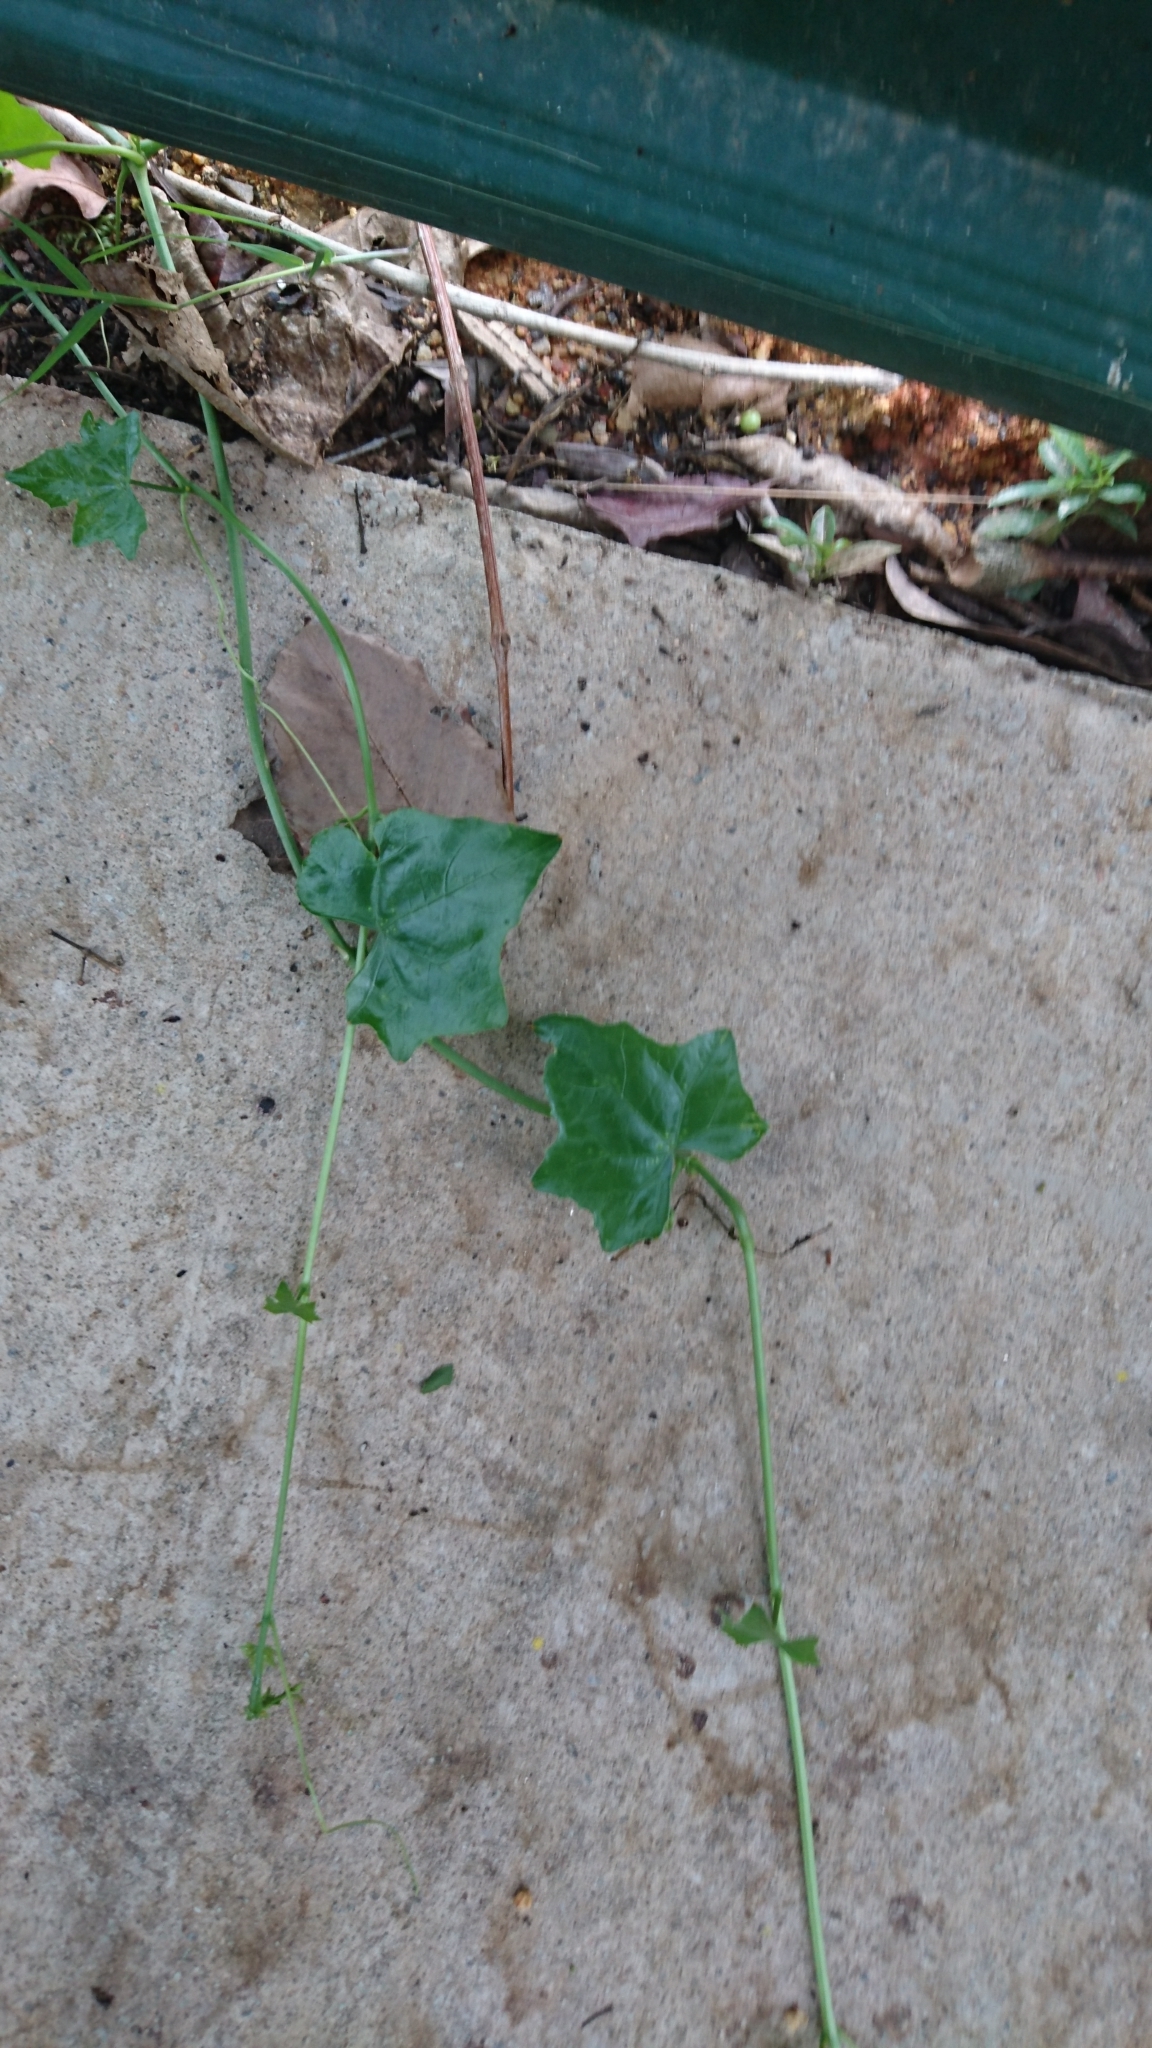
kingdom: Plantae
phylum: Tracheophyta
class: Magnoliopsida
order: Cucurbitales
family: Cucurbitaceae
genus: Coccinia
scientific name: Coccinia grandis
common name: Ivy gourd
